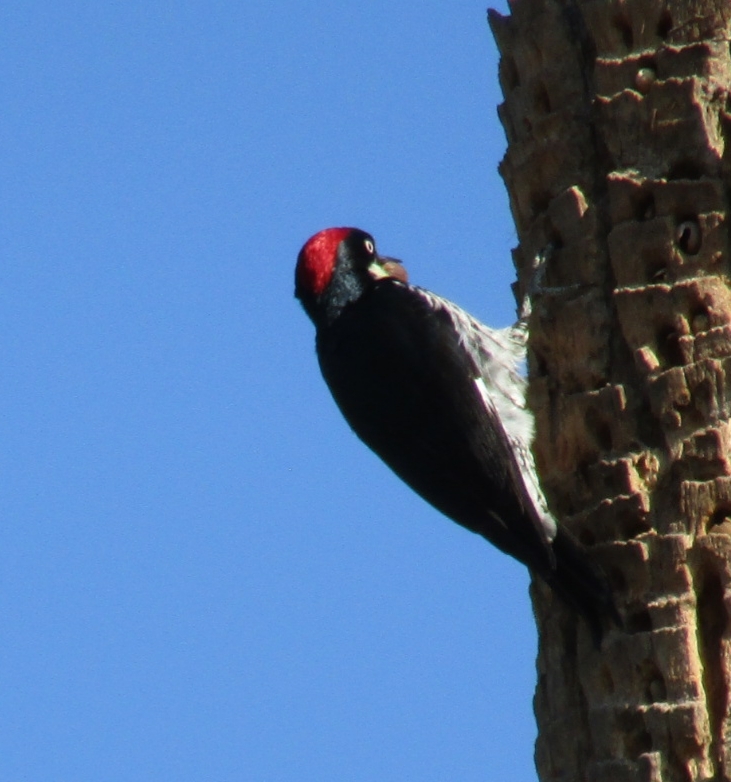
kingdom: Animalia
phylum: Chordata
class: Aves
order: Piciformes
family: Picidae
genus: Melanerpes
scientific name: Melanerpes formicivorus
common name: Acorn woodpecker
